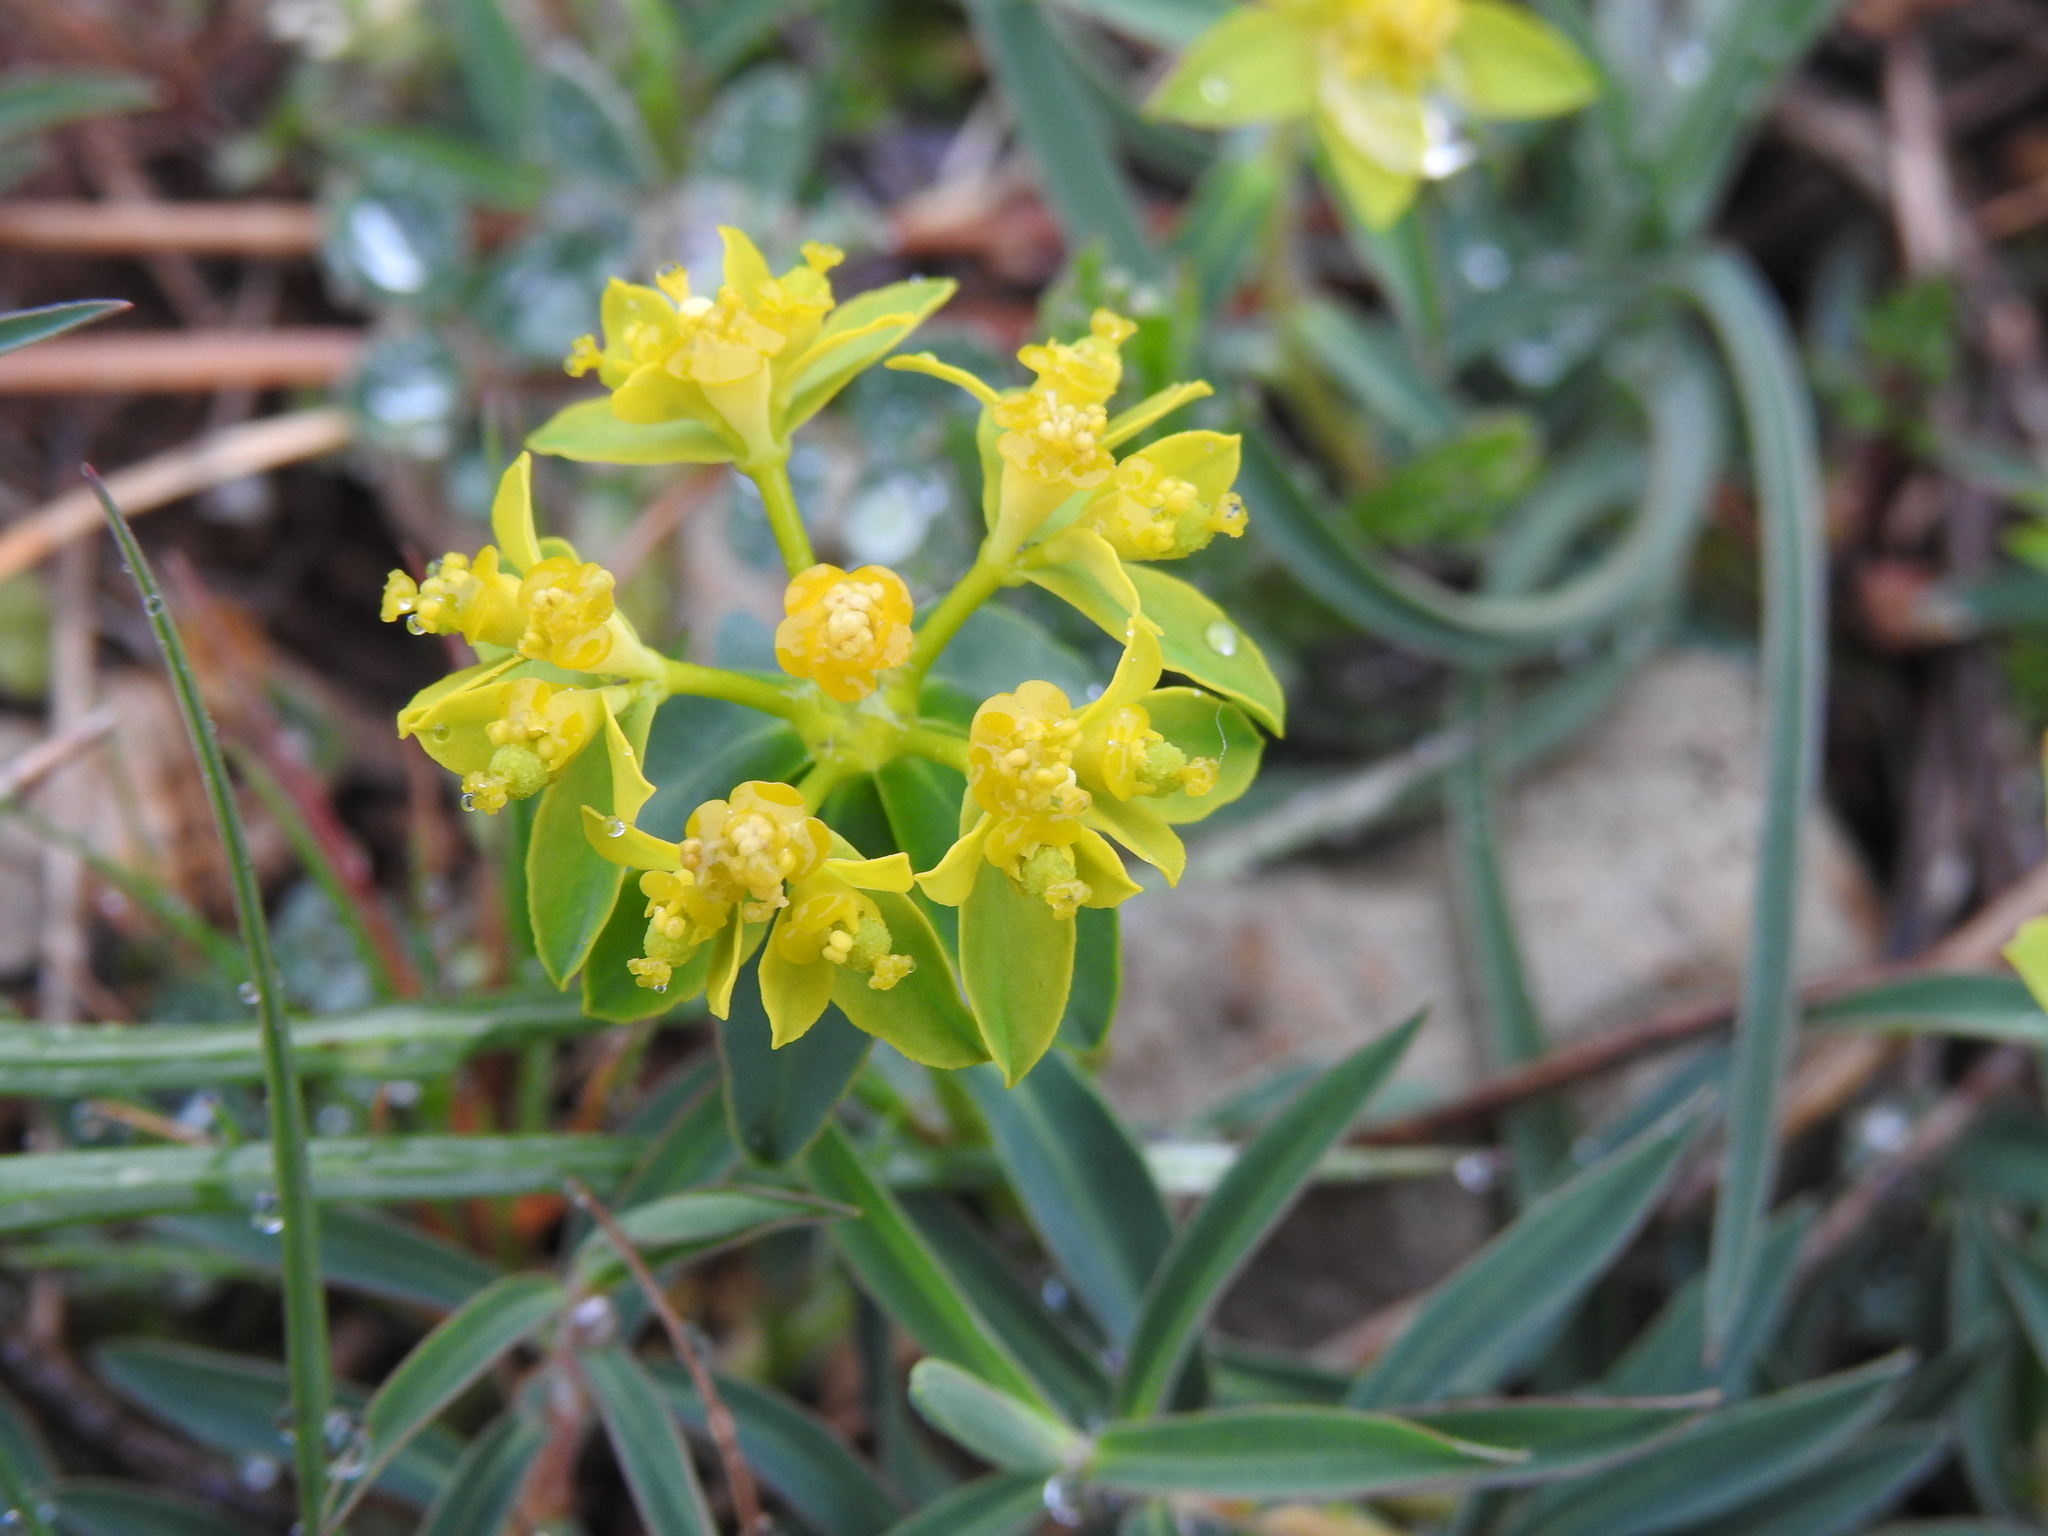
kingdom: Plantae
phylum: Tracheophyta
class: Magnoliopsida
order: Malpighiales
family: Euphorbiaceae
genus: Euphorbia
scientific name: Euphorbia flavicoma
